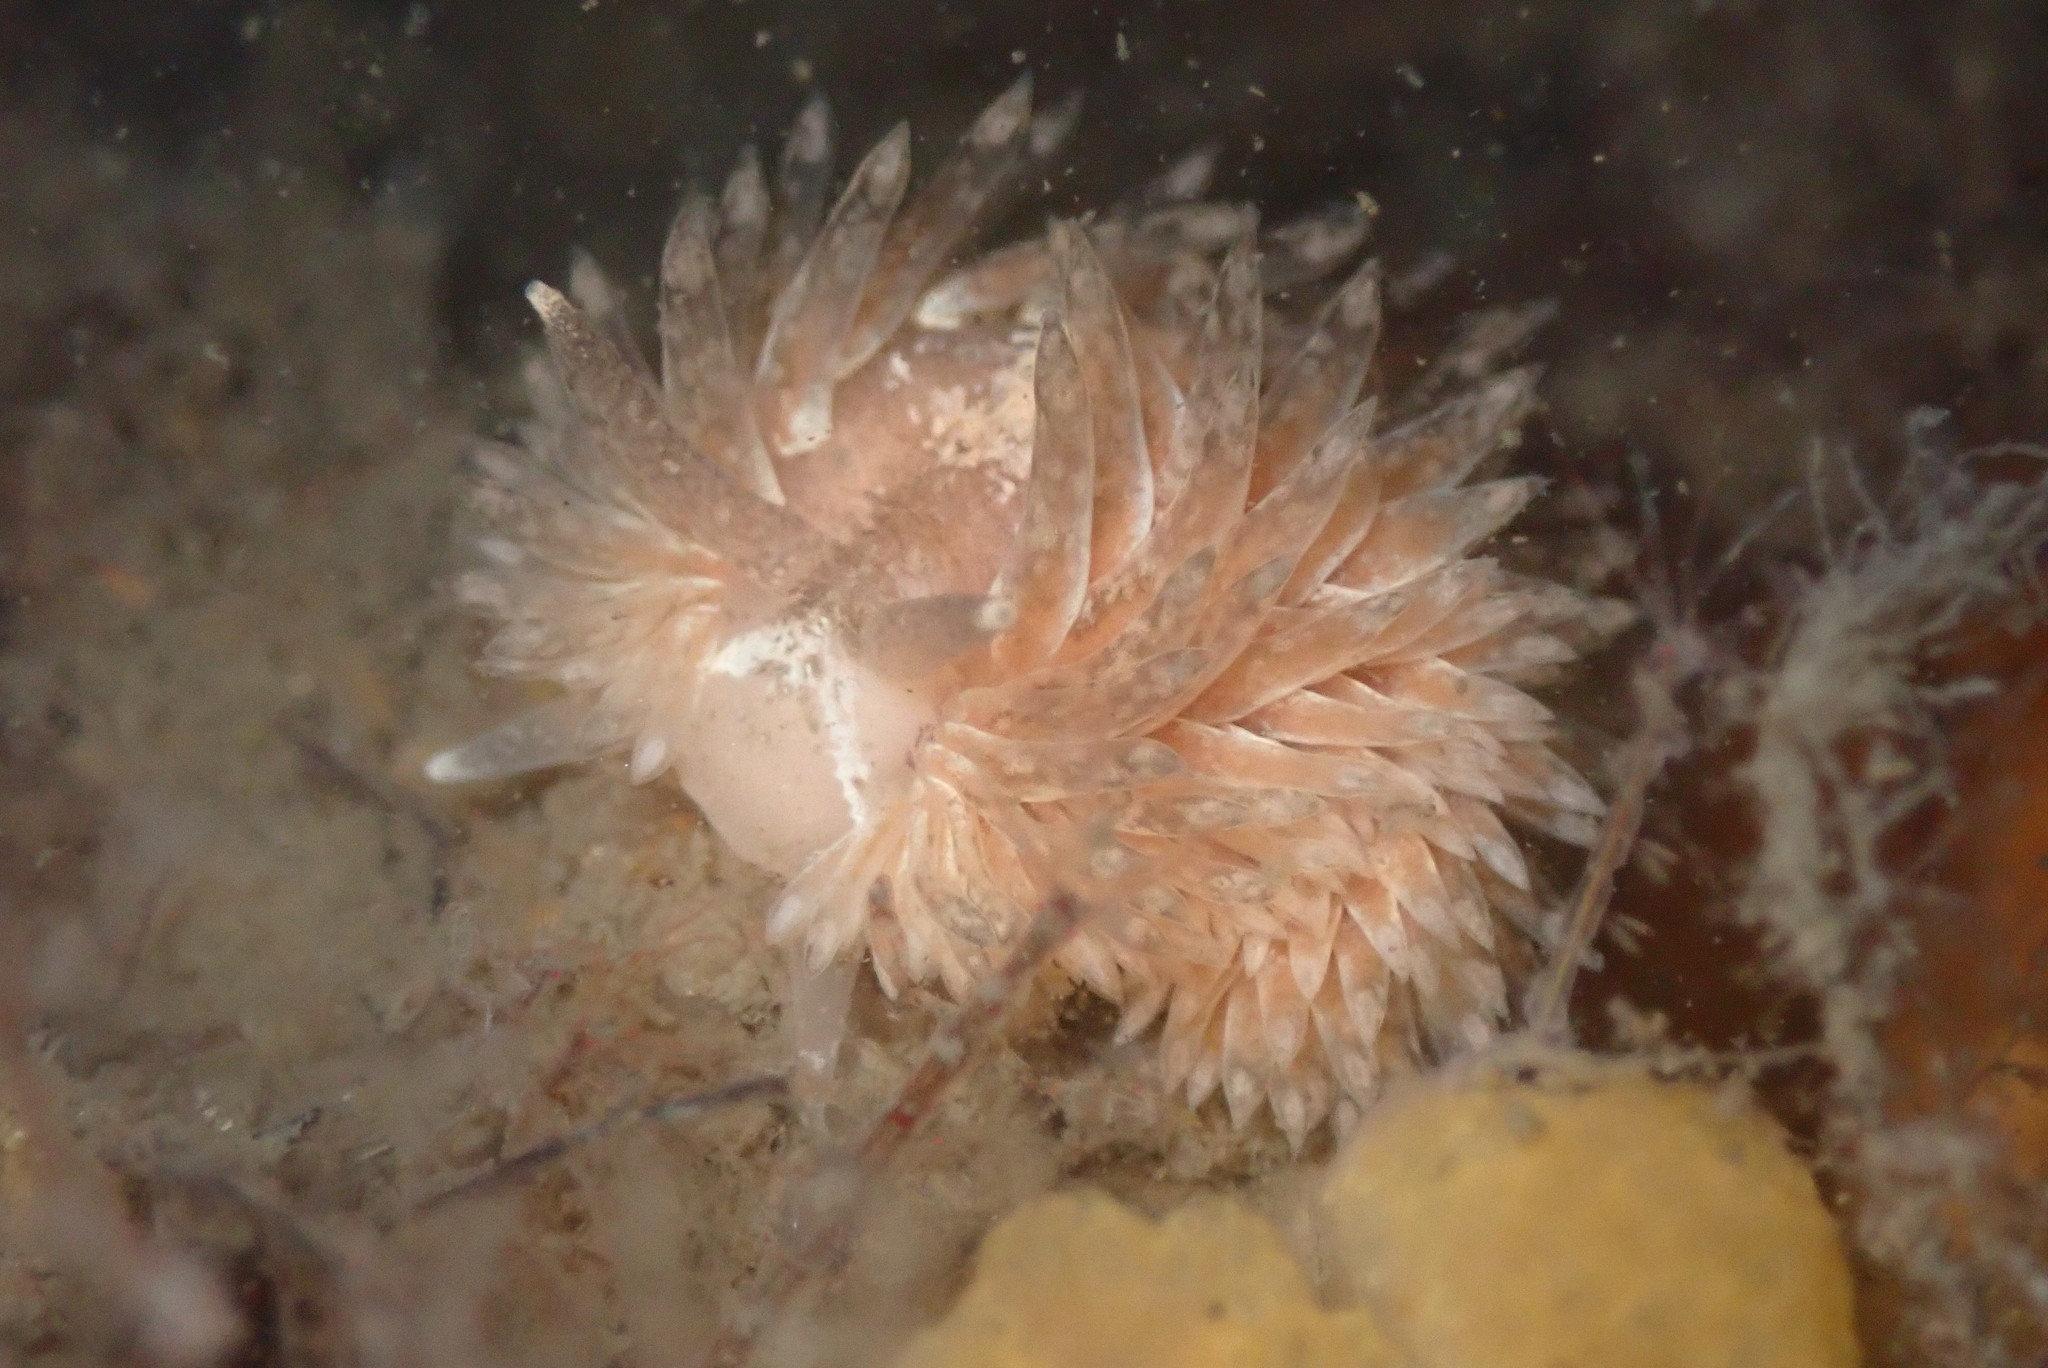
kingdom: Animalia
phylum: Mollusca
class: Gastropoda
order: Nudibranchia
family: Aeolidiidae
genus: Aeolidia
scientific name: Aeolidia loui
